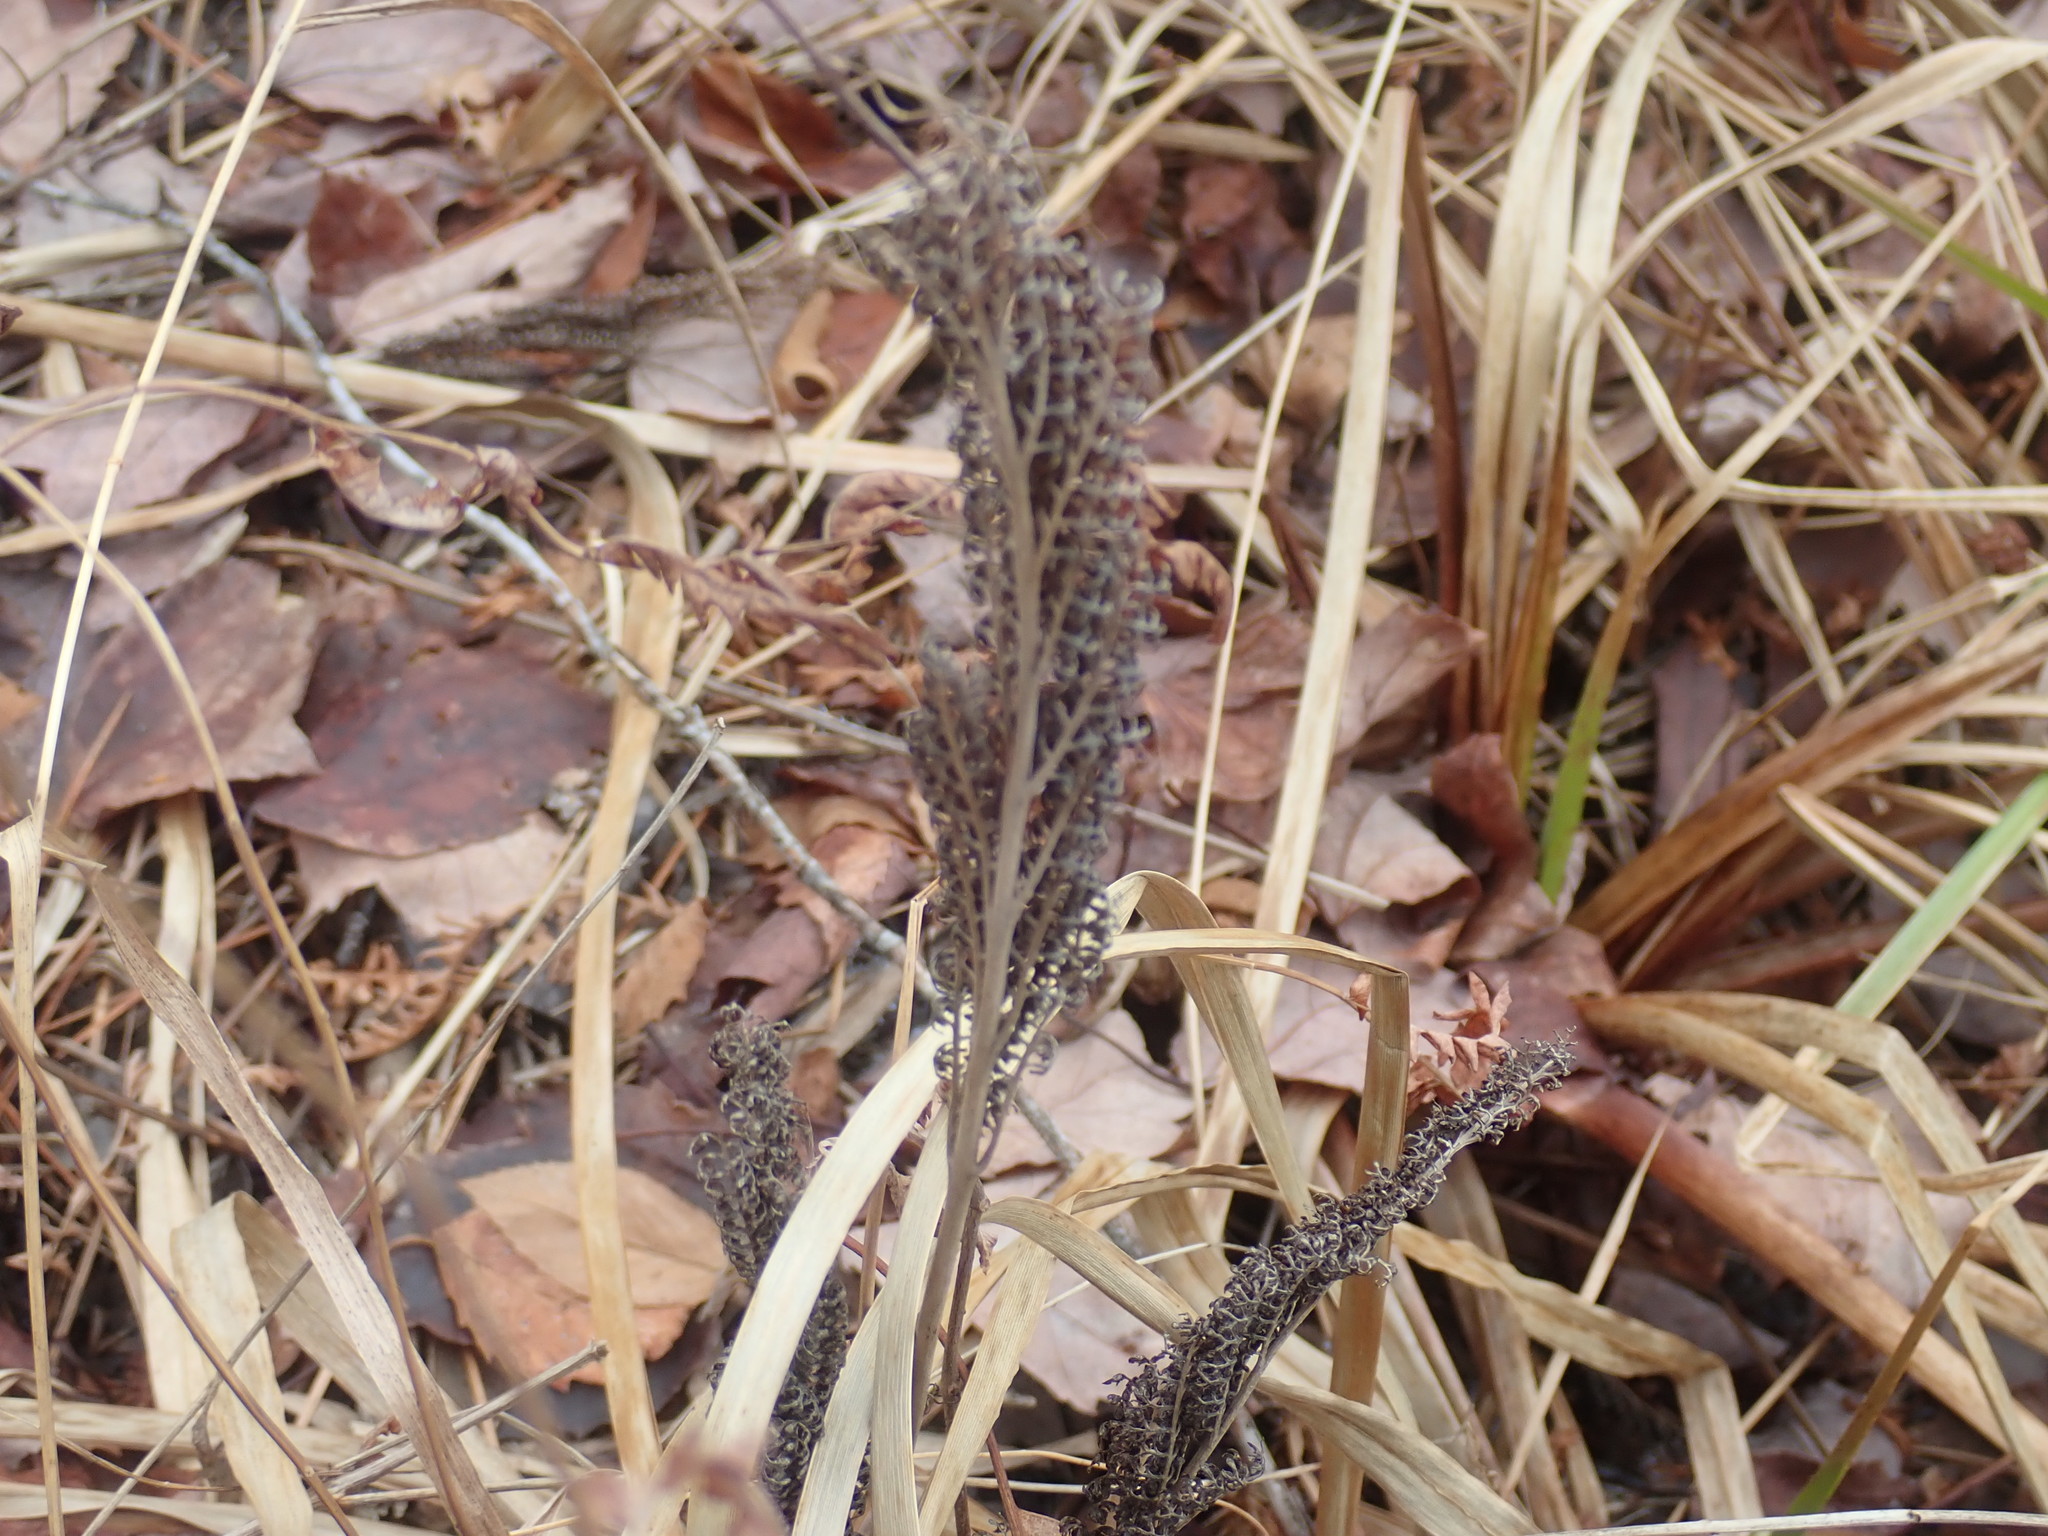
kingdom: Plantae
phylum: Tracheophyta
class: Polypodiopsida
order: Polypodiales
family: Onocleaceae
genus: Onoclea
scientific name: Onoclea sensibilis
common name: Sensitive fern
